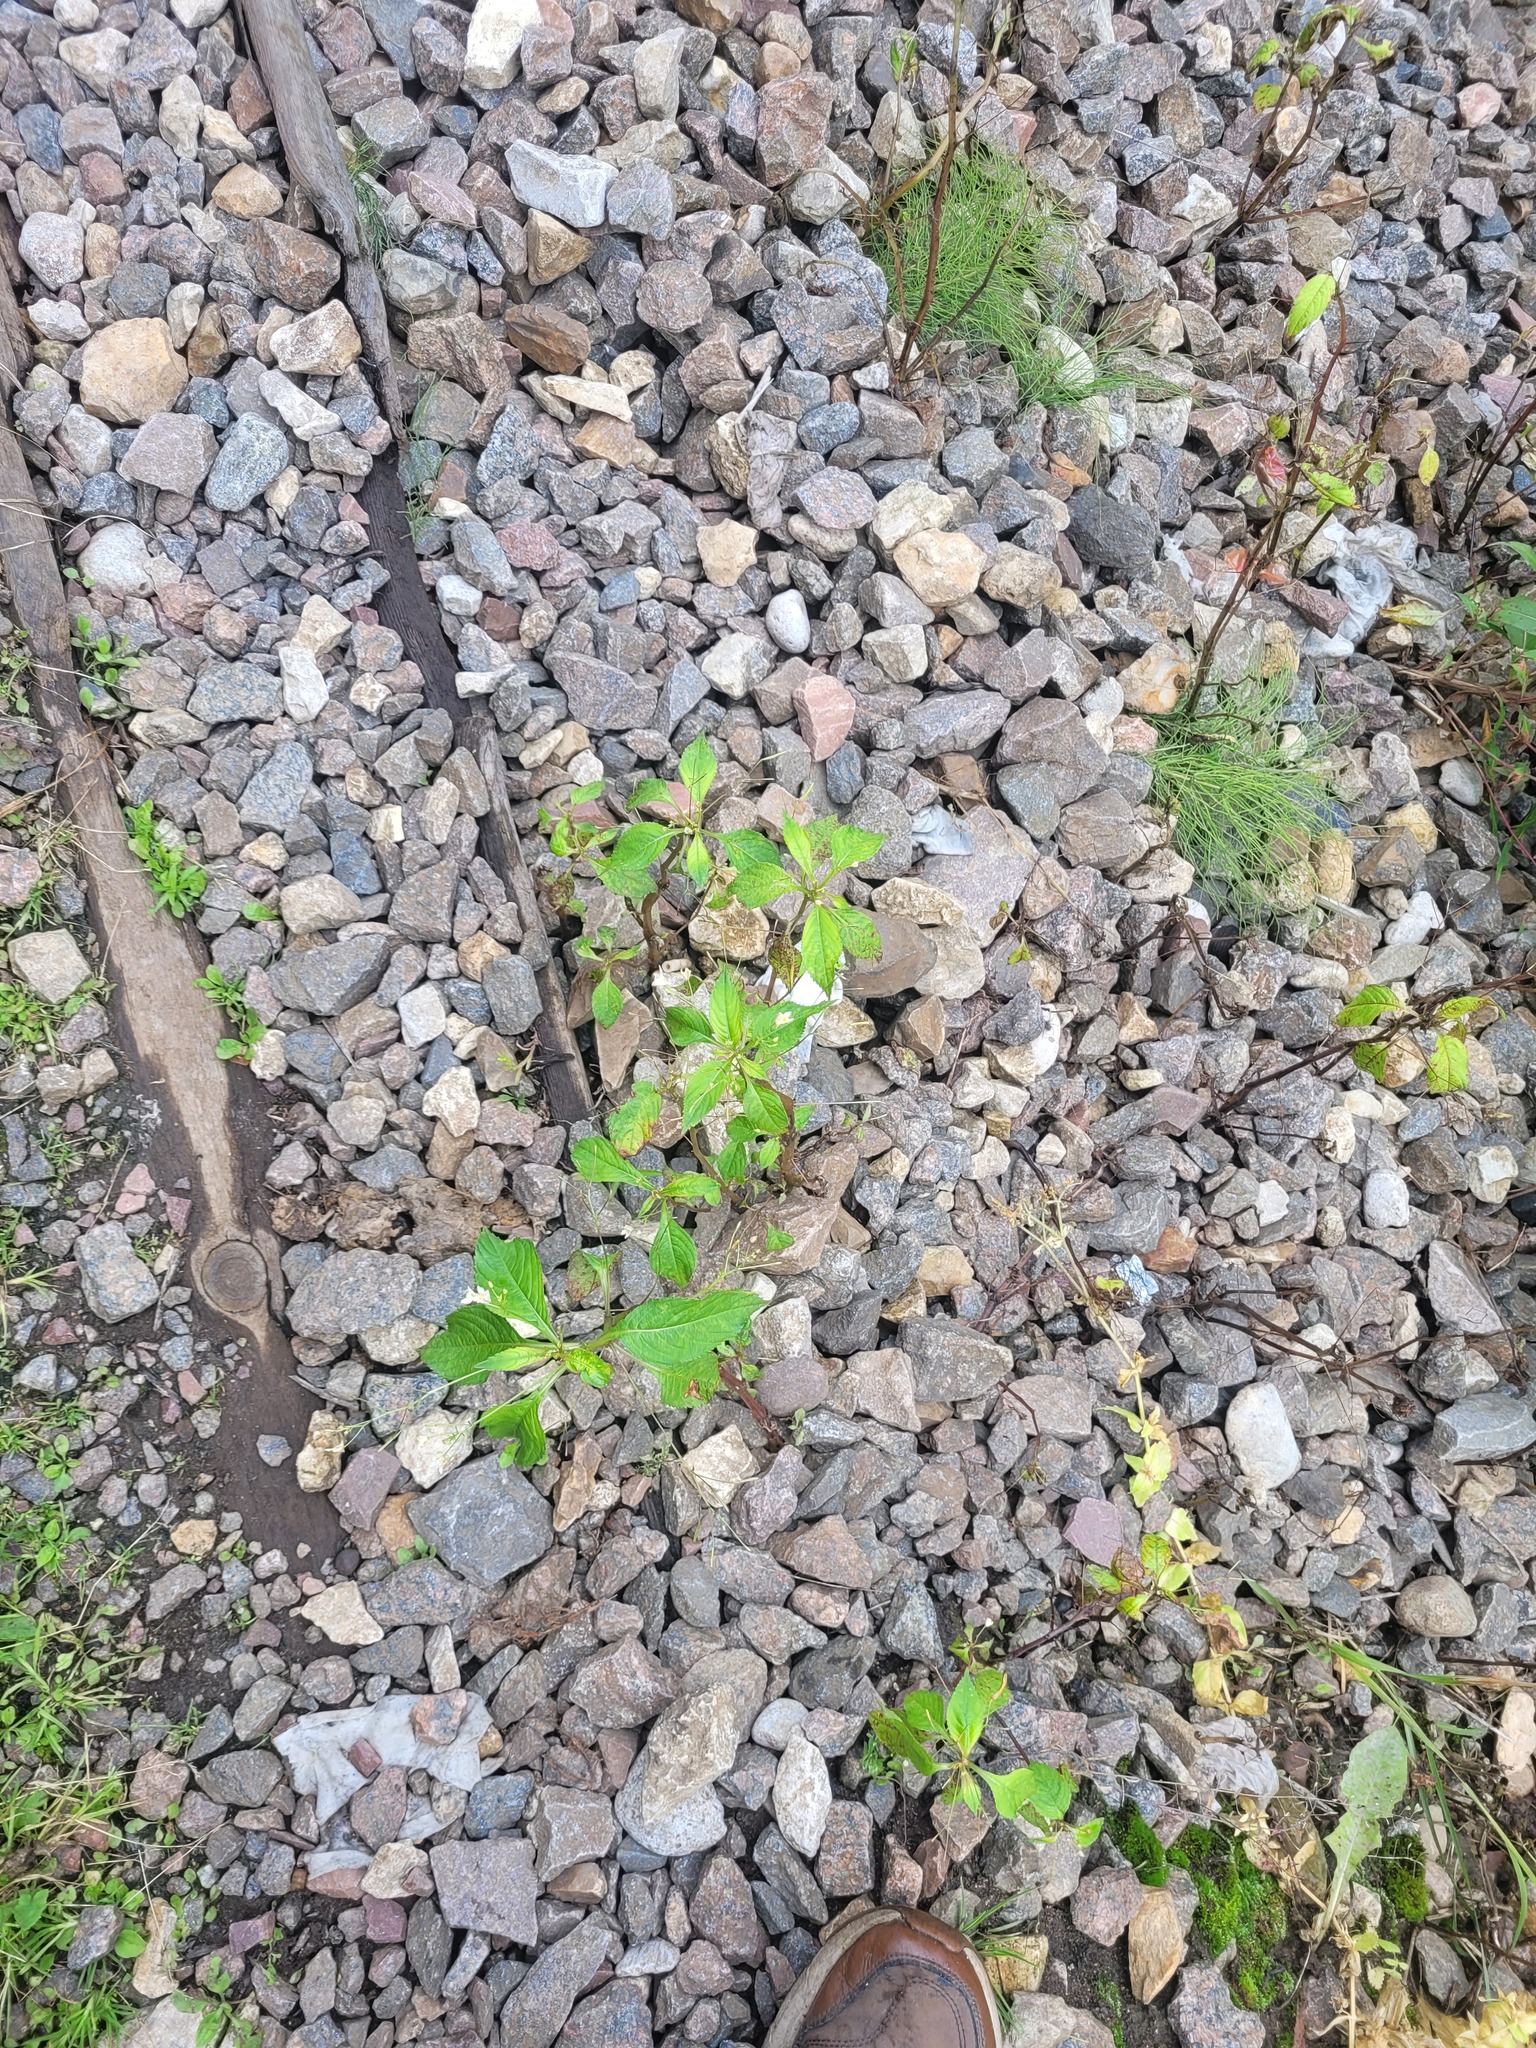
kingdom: Plantae
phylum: Tracheophyta
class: Magnoliopsida
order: Ericales
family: Balsaminaceae
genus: Impatiens
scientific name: Impatiens parviflora
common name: Small balsam
